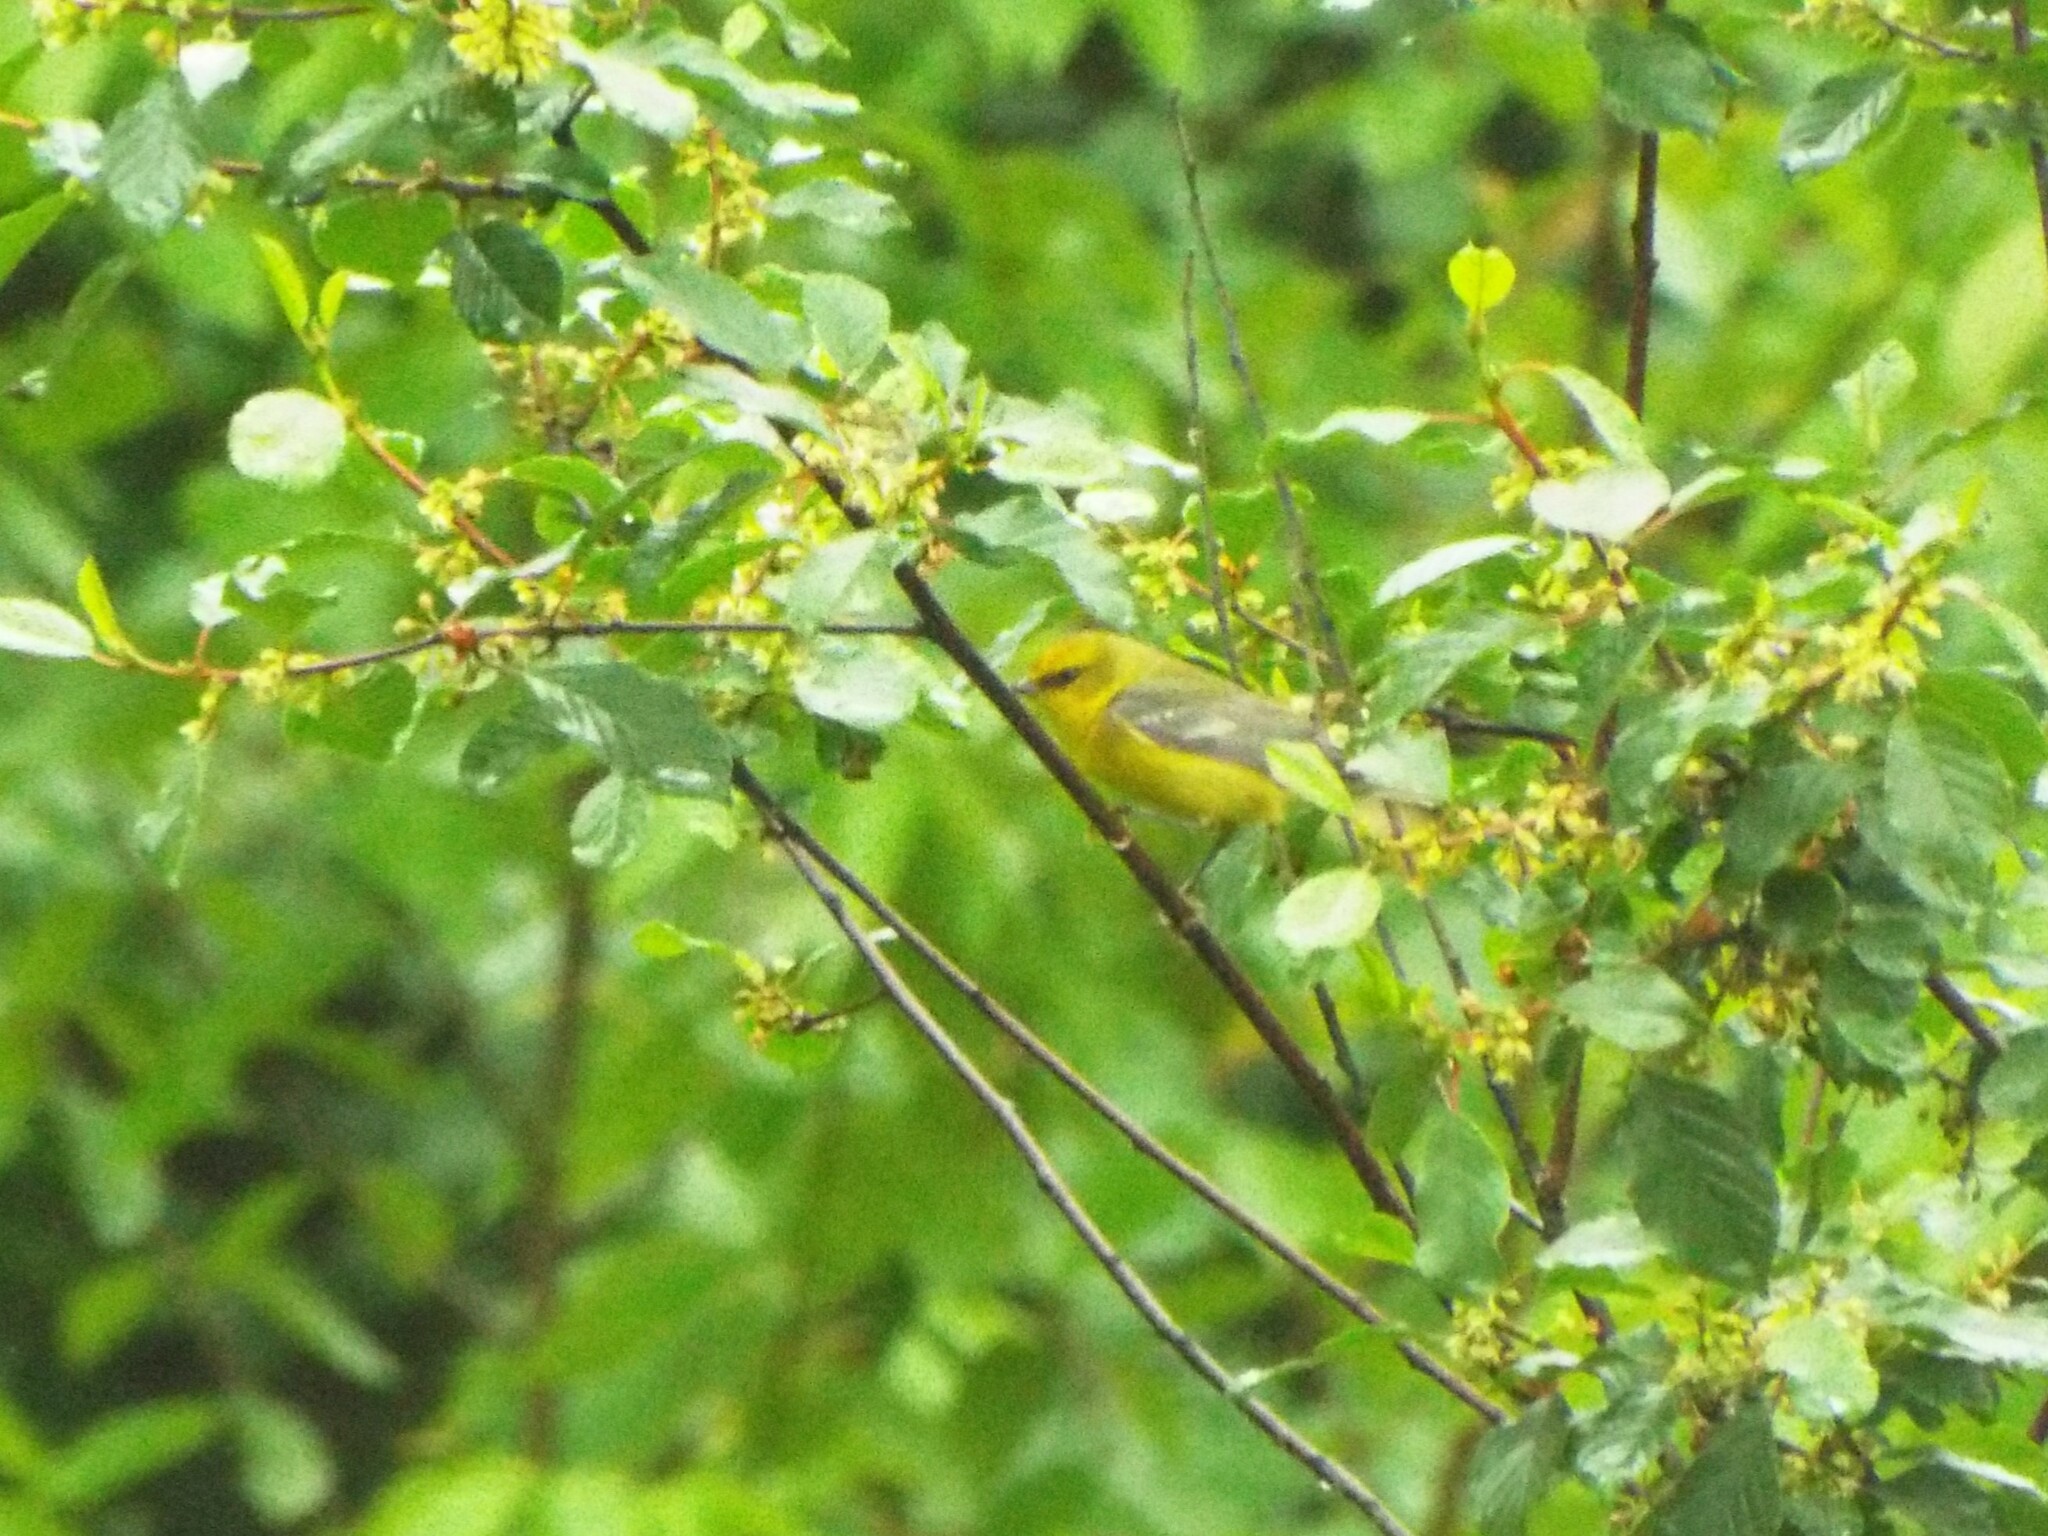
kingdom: Animalia
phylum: Chordata
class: Aves
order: Passeriformes
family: Parulidae
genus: Vermivora
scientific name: Vermivora cyanoptera
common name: Blue-winged warbler
